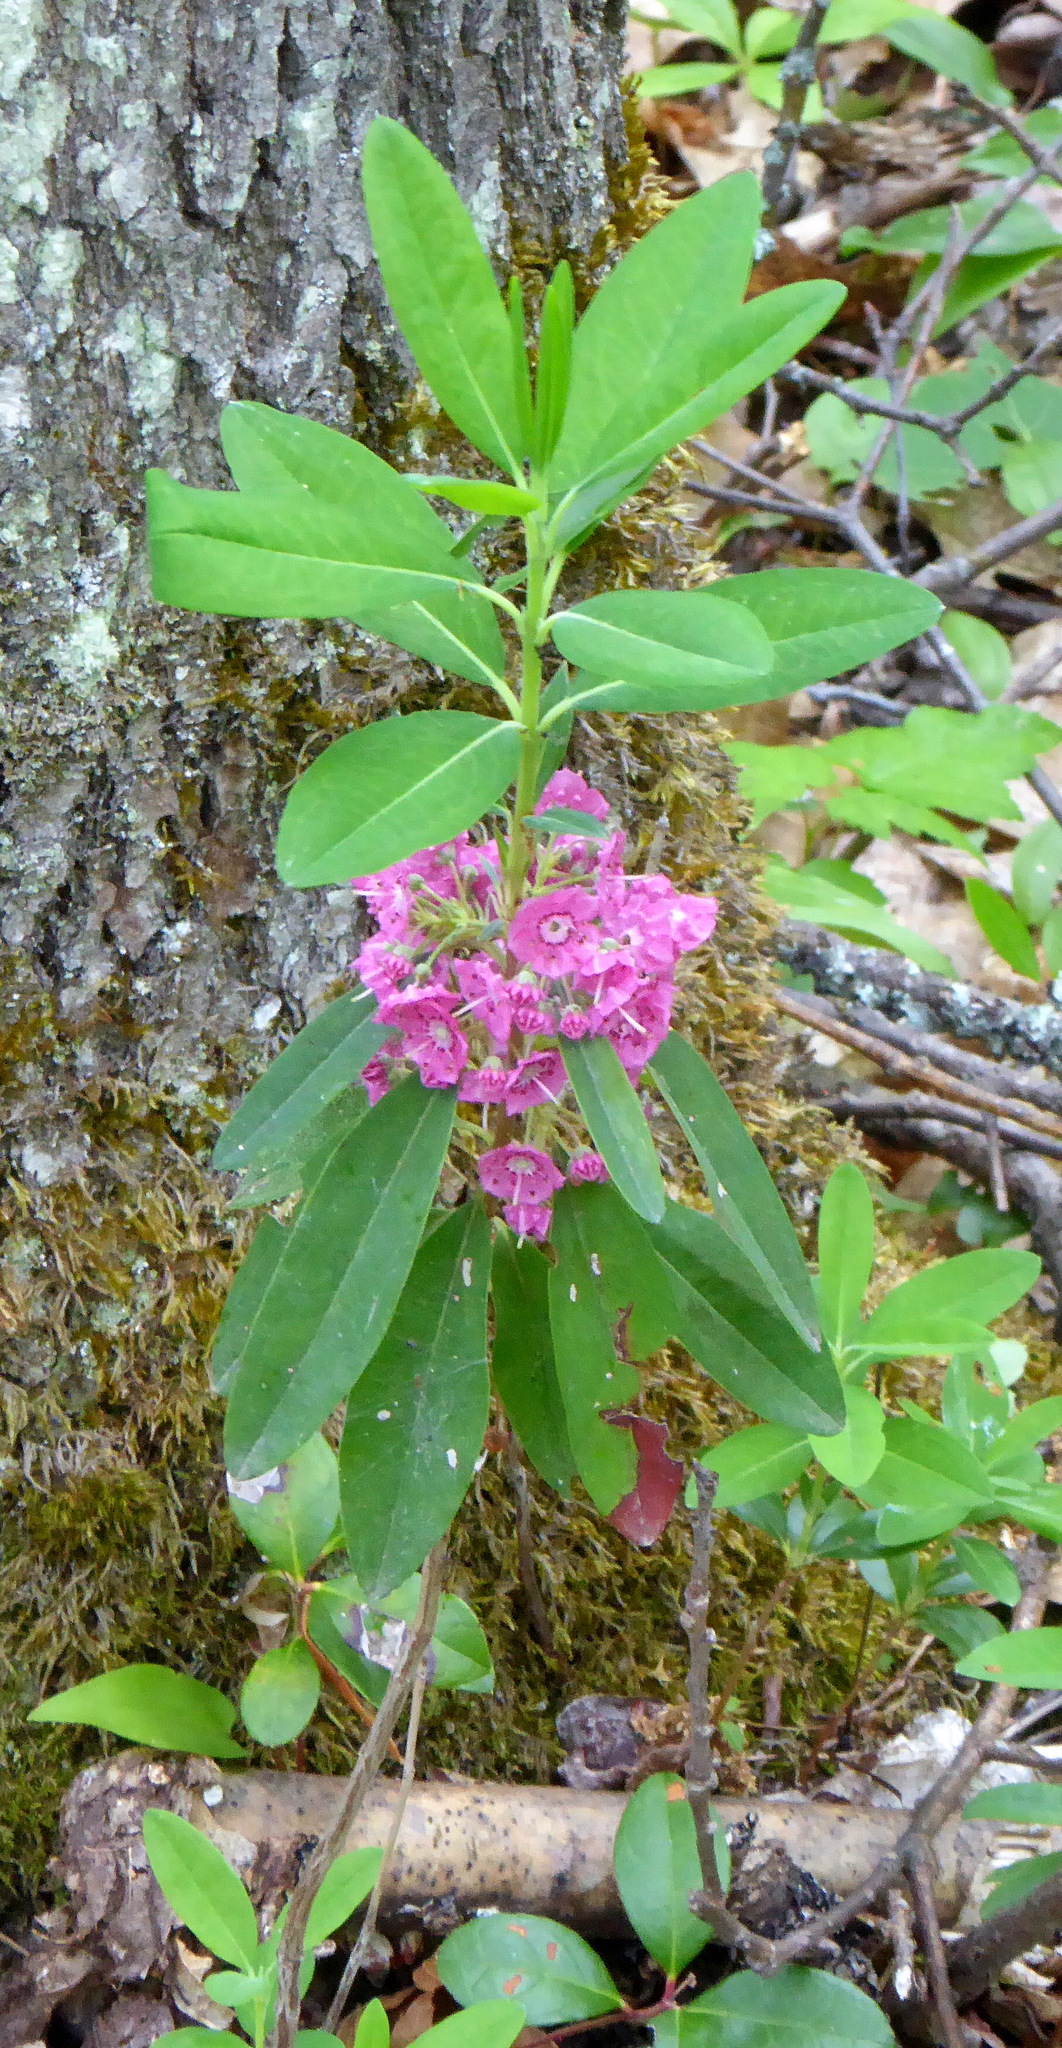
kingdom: Plantae
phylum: Tracheophyta
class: Magnoliopsida
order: Ericales
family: Ericaceae
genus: Kalmia
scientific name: Kalmia angustifolia
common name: Sheep-laurel
